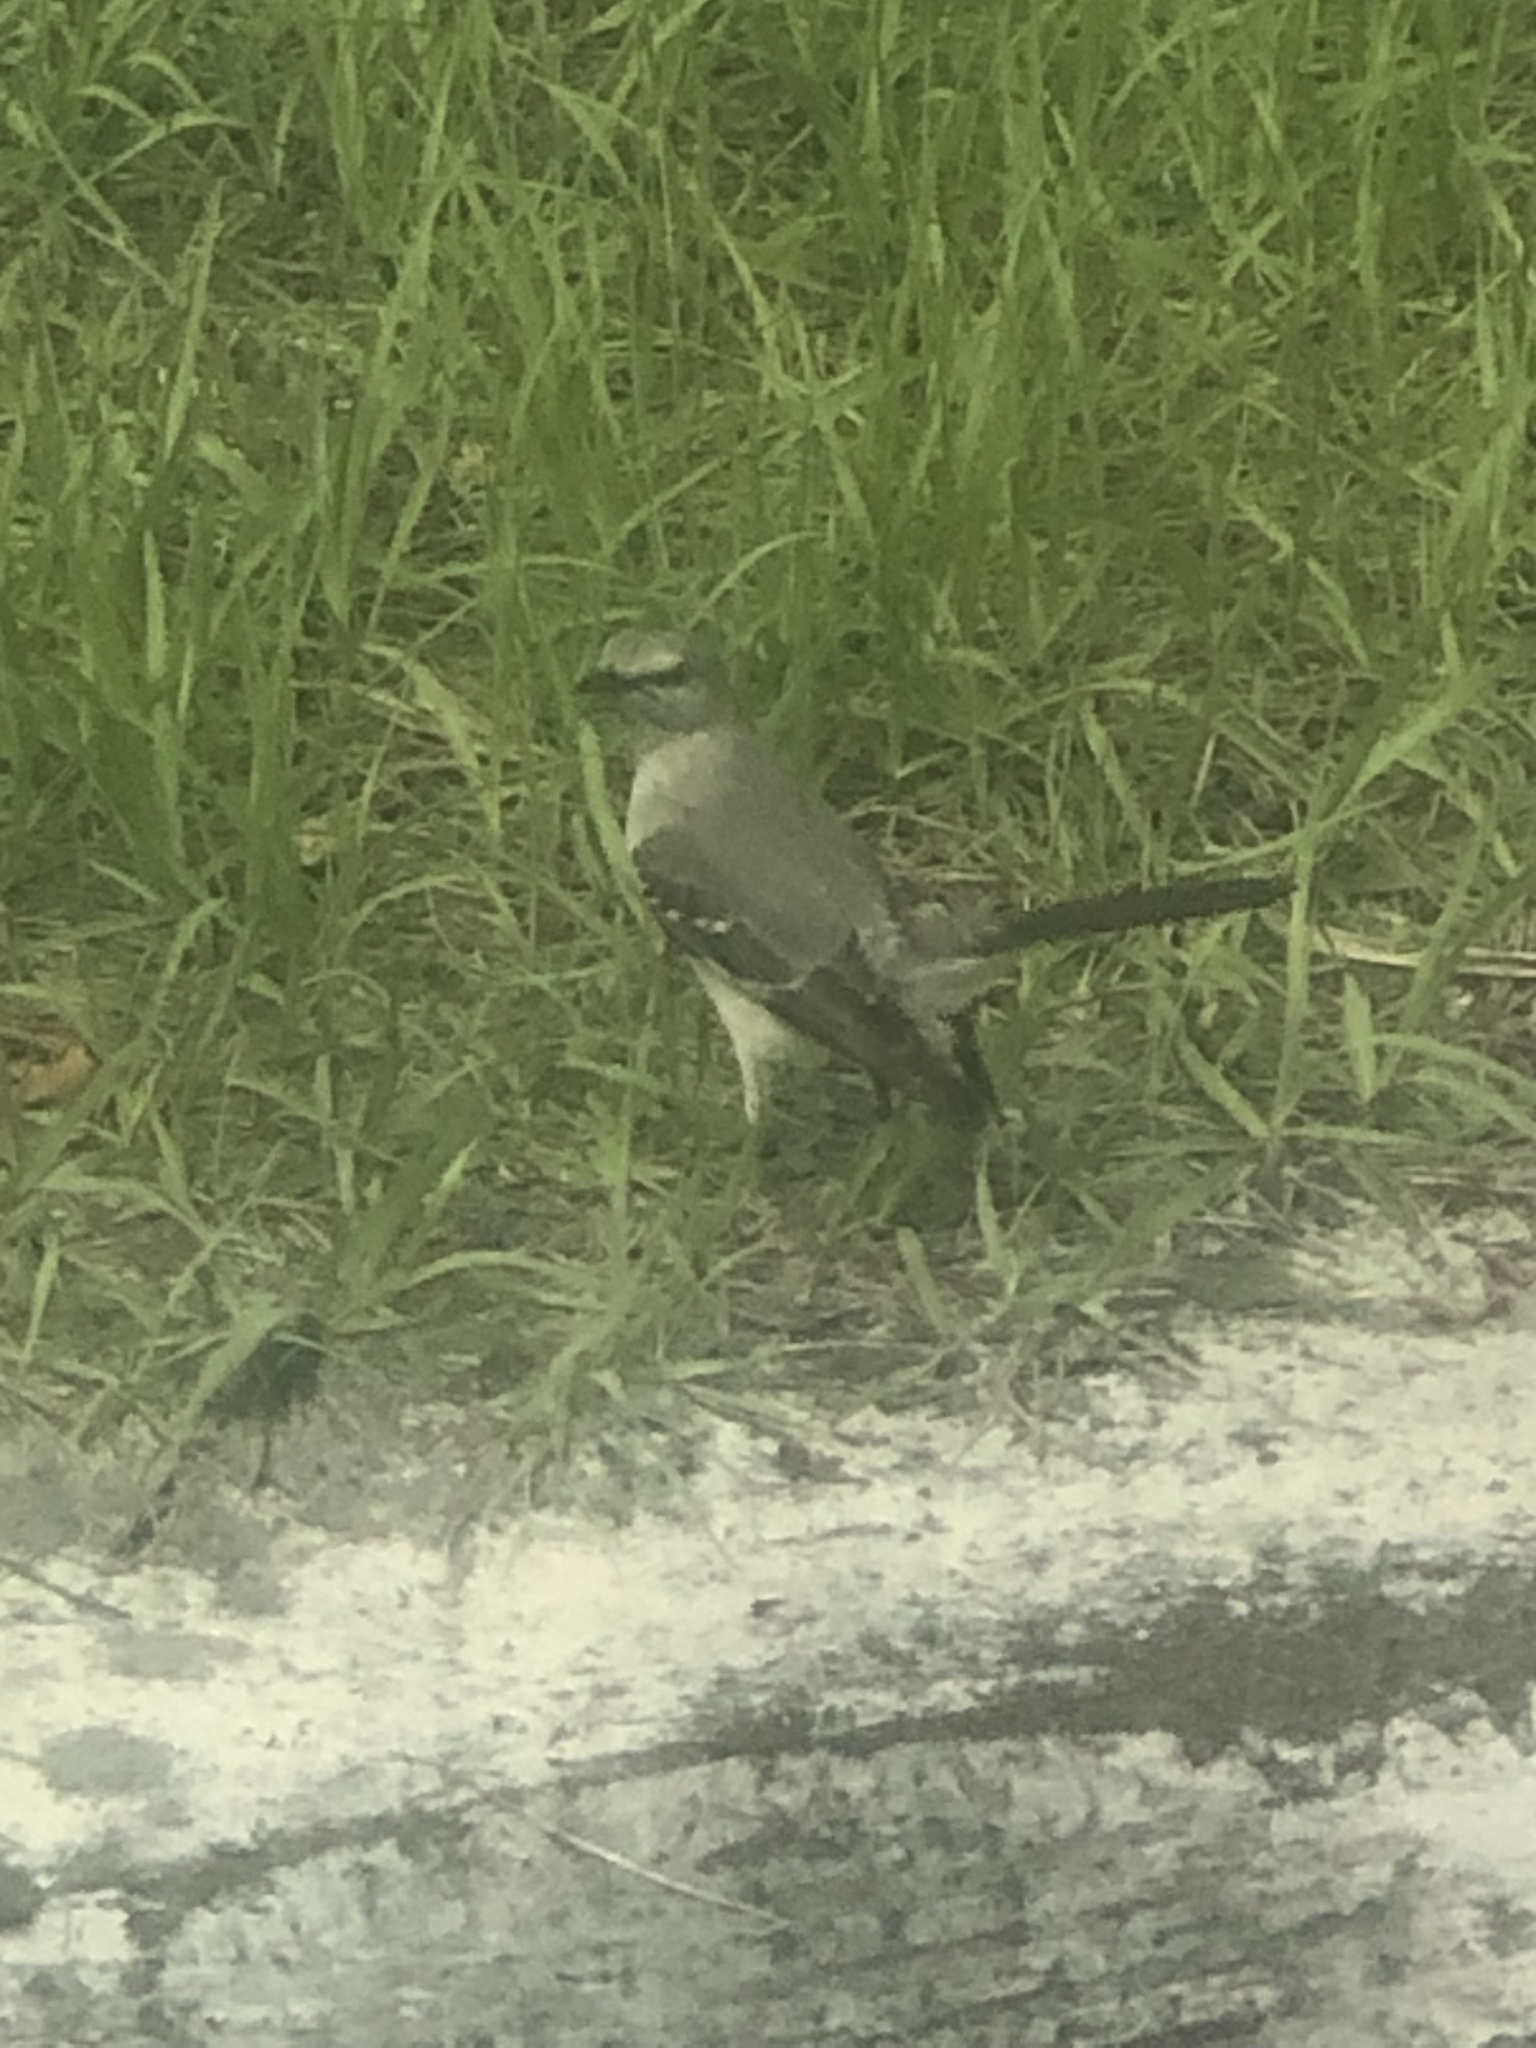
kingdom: Animalia
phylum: Chordata
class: Aves
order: Passeriformes
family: Mimidae
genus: Mimus
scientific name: Mimus polyglottos
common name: Northern mockingbird
